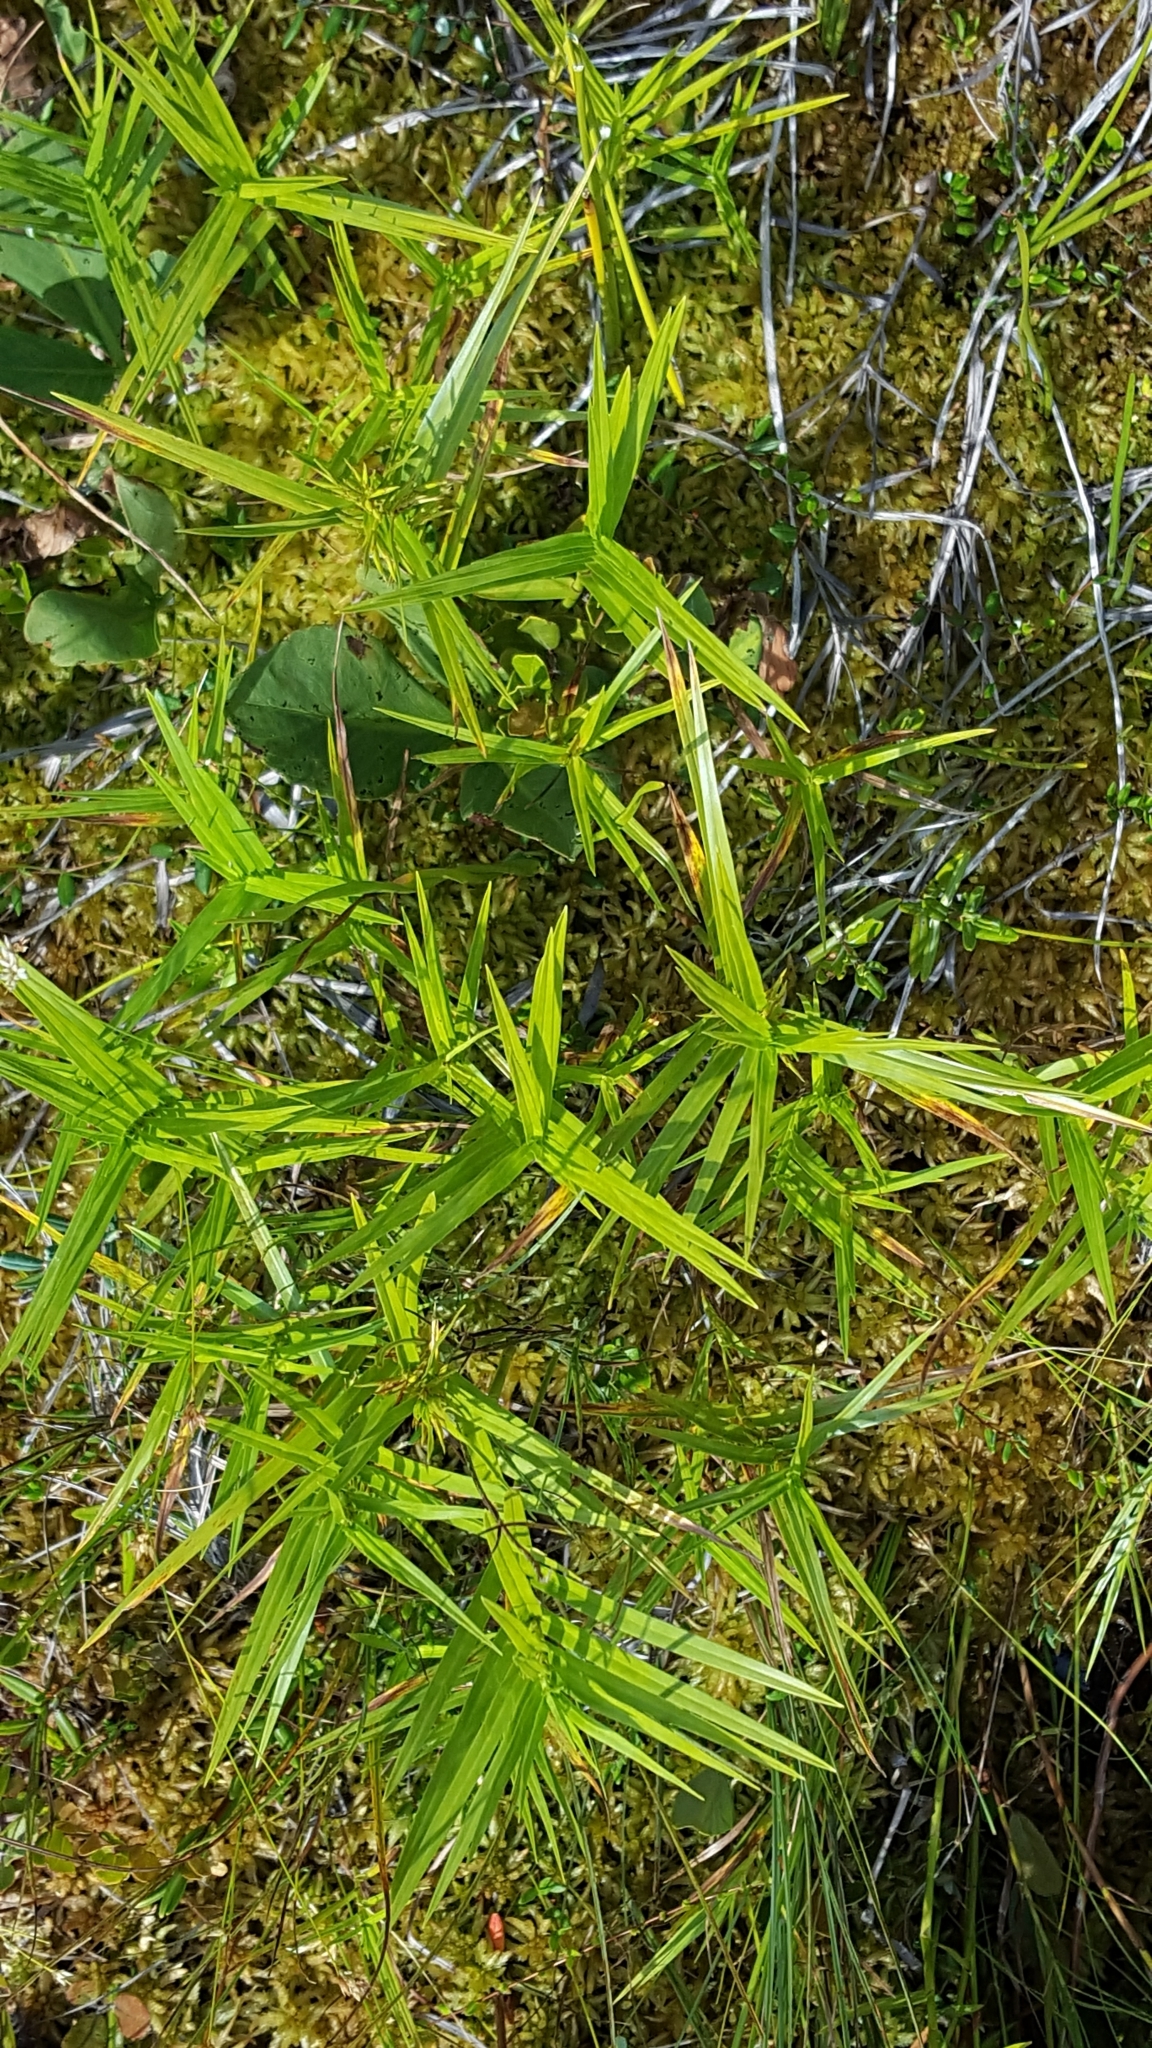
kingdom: Plantae
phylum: Tracheophyta
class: Liliopsida
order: Poales
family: Cyperaceae
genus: Dulichium
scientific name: Dulichium arundinaceum
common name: Three-way sedge
